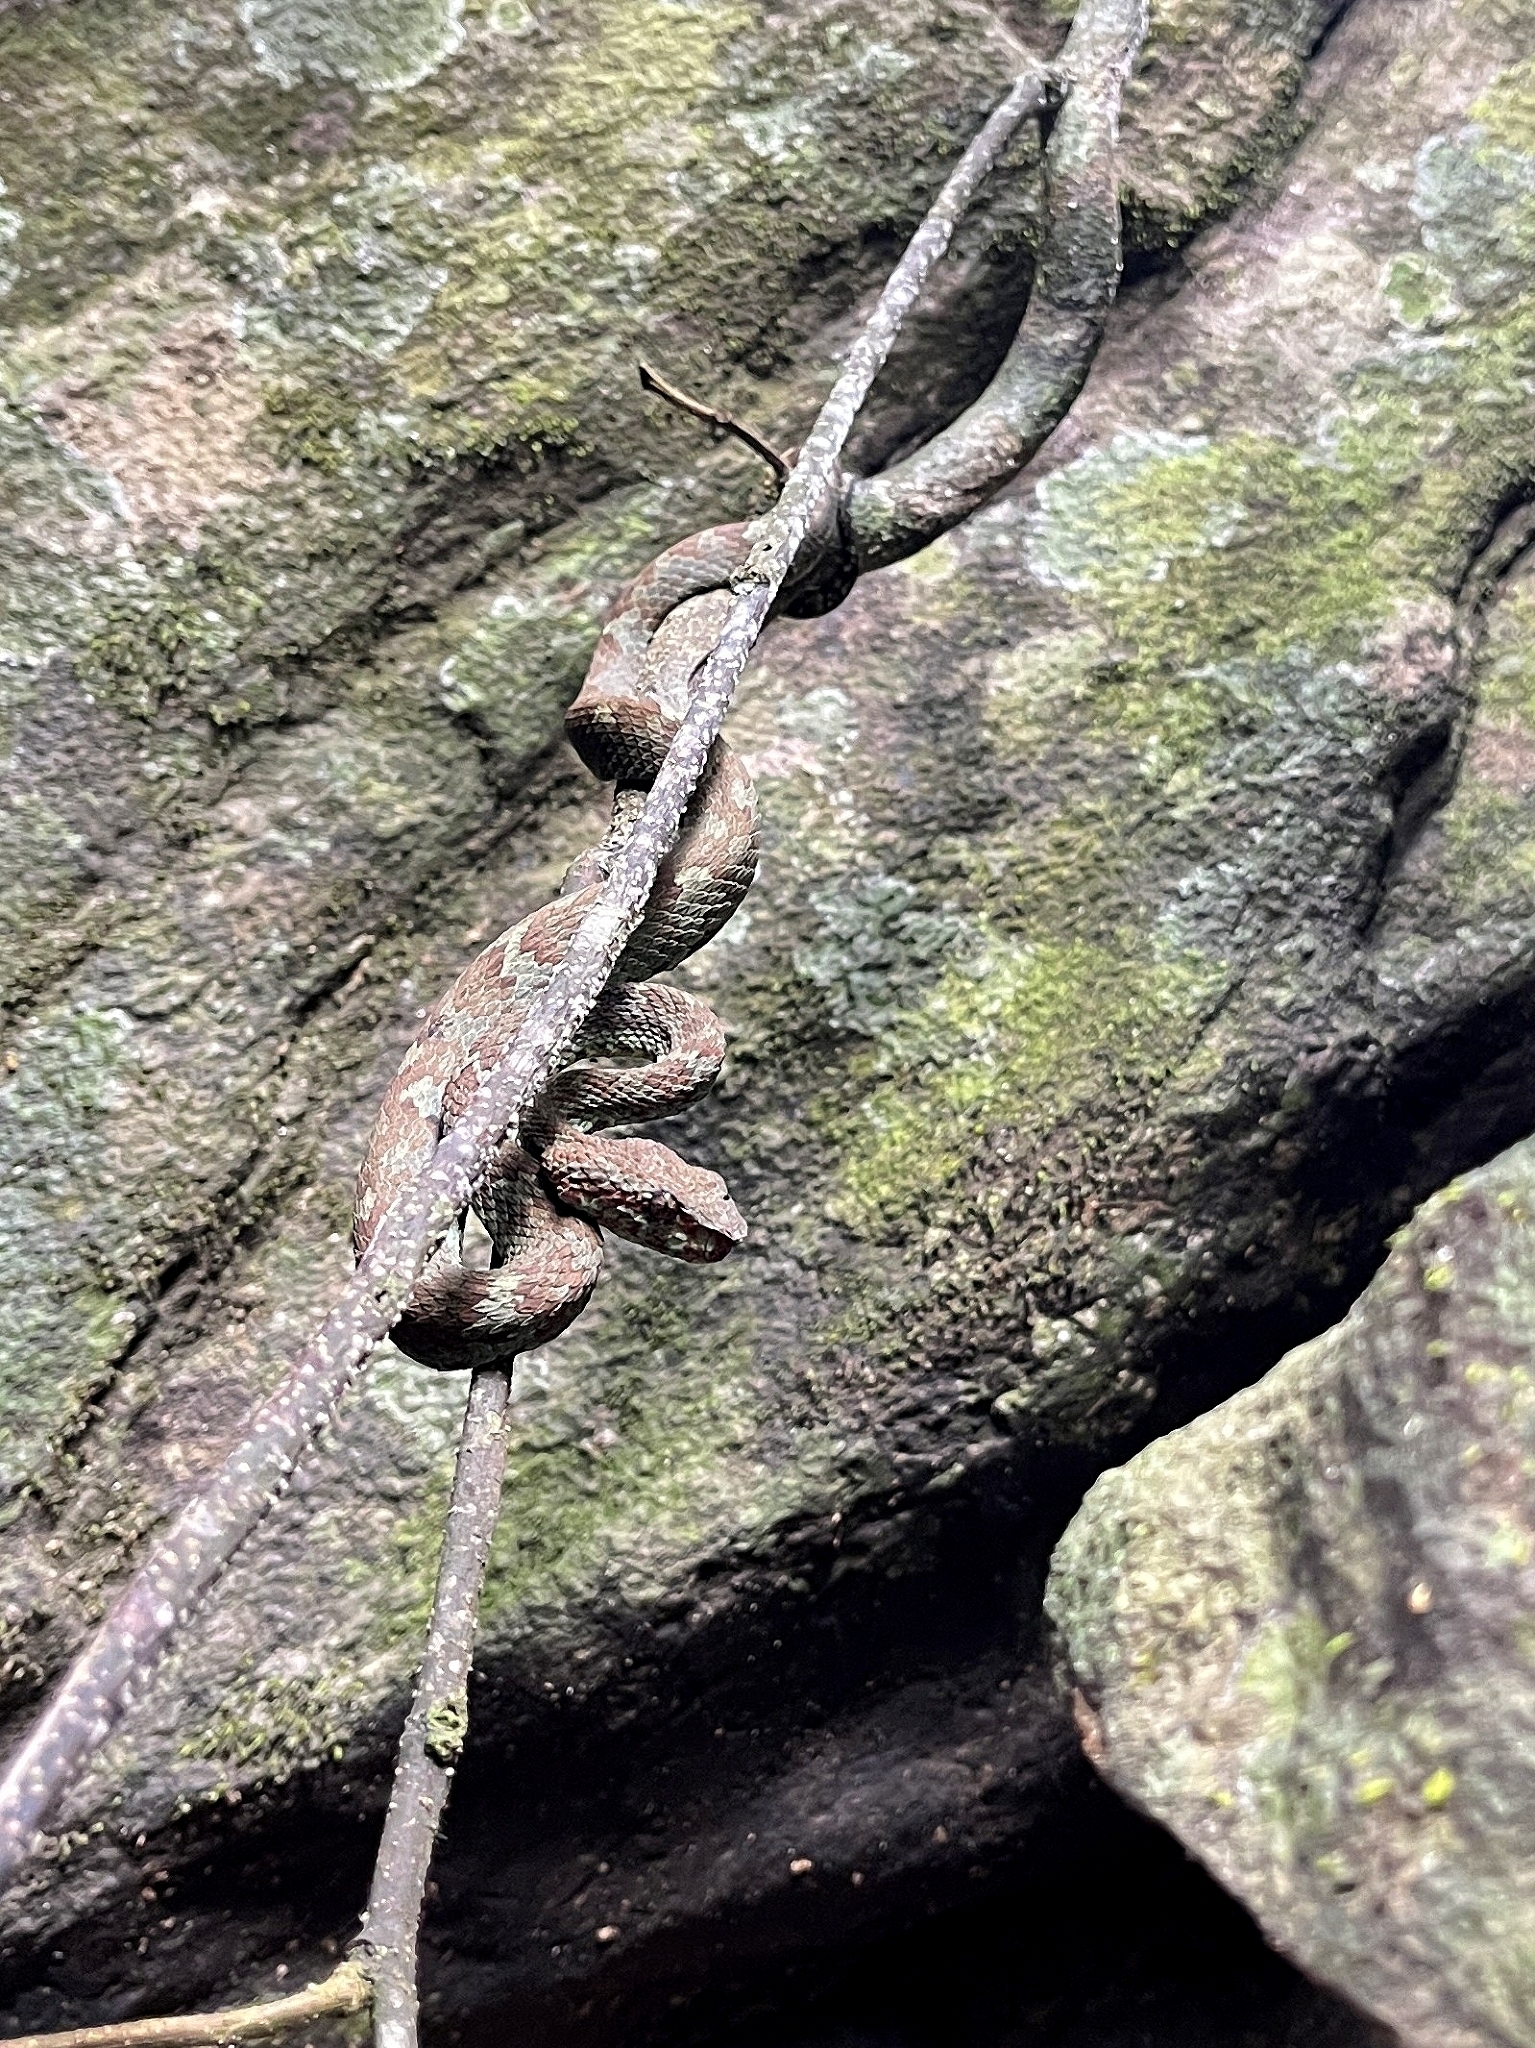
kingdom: Animalia
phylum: Chordata
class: Squamata
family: Viperidae
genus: Craspedocephalus
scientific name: Craspedocephalus malabaricus
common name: Malabarian pit viper
